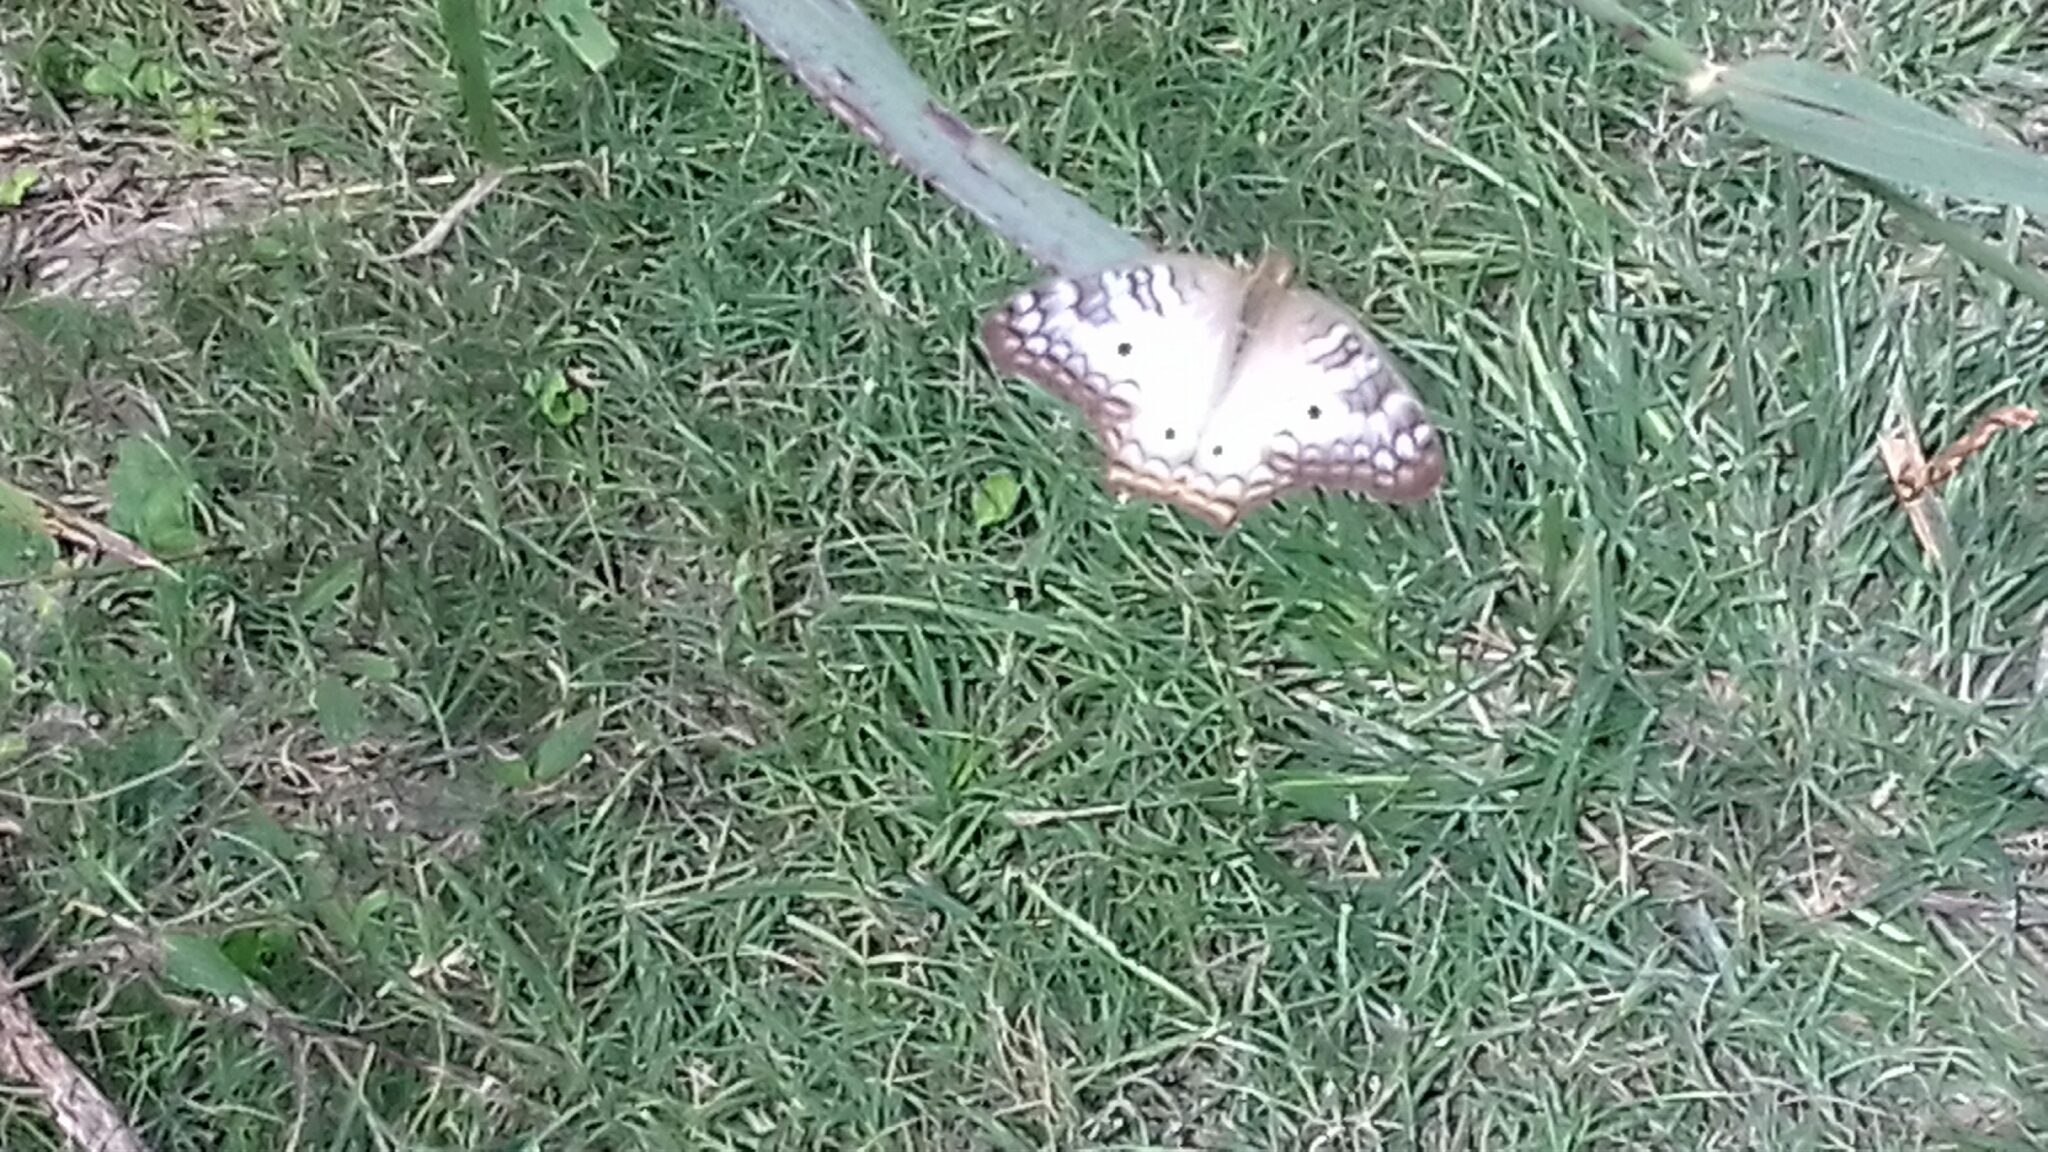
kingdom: Animalia
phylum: Arthropoda
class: Insecta
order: Lepidoptera
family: Nymphalidae
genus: Anartia
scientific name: Anartia jatrophae
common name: White peacock
